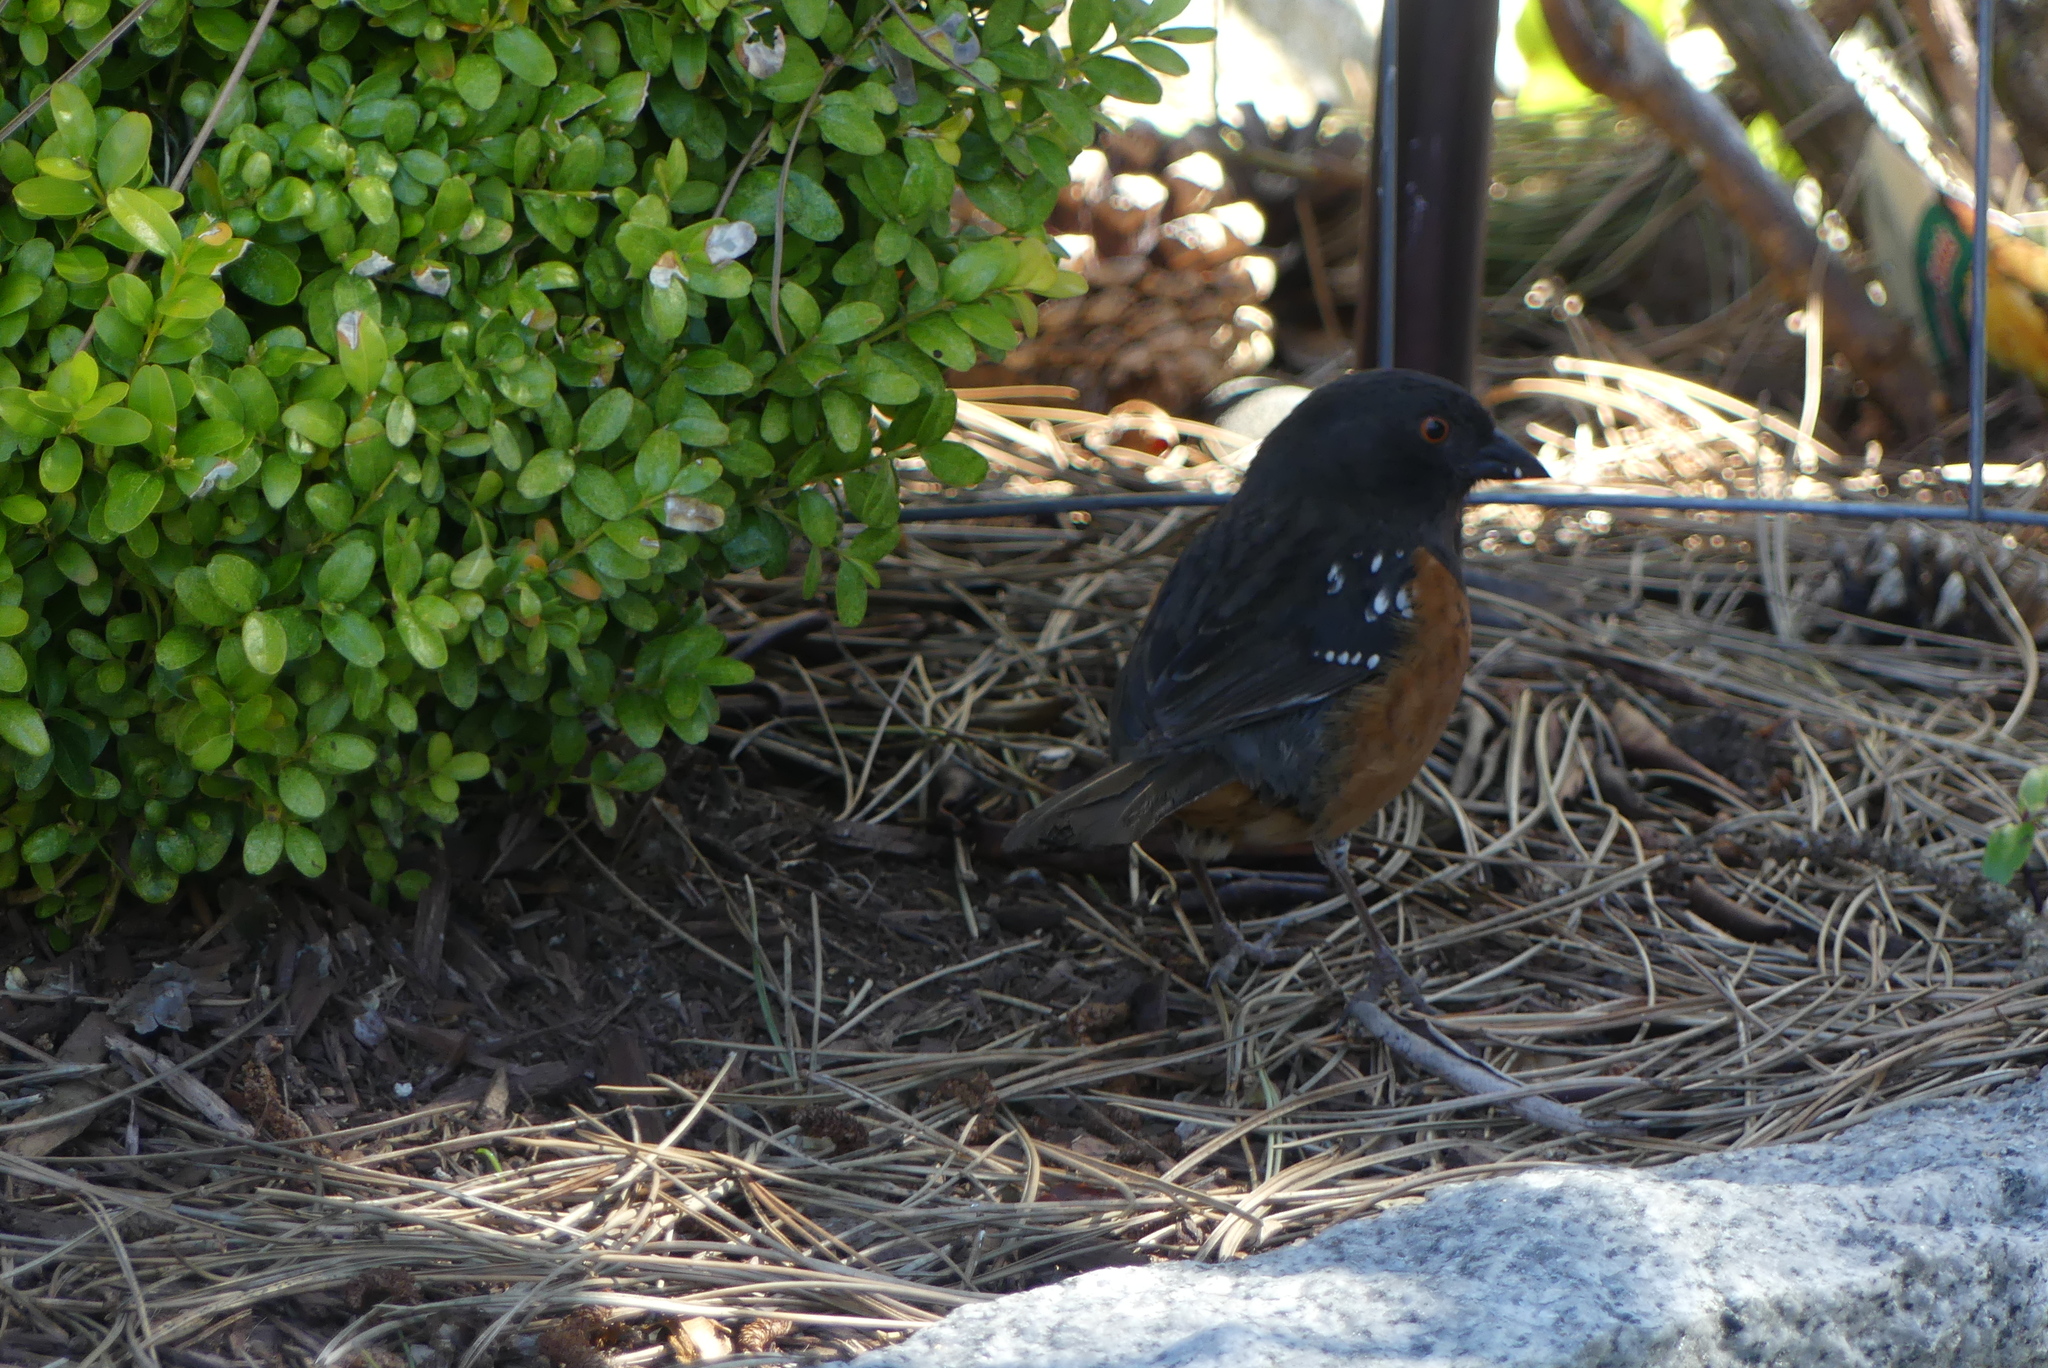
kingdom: Animalia
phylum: Chordata
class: Aves
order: Passeriformes
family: Passerellidae
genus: Pipilo
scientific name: Pipilo maculatus
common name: Spotted towhee
